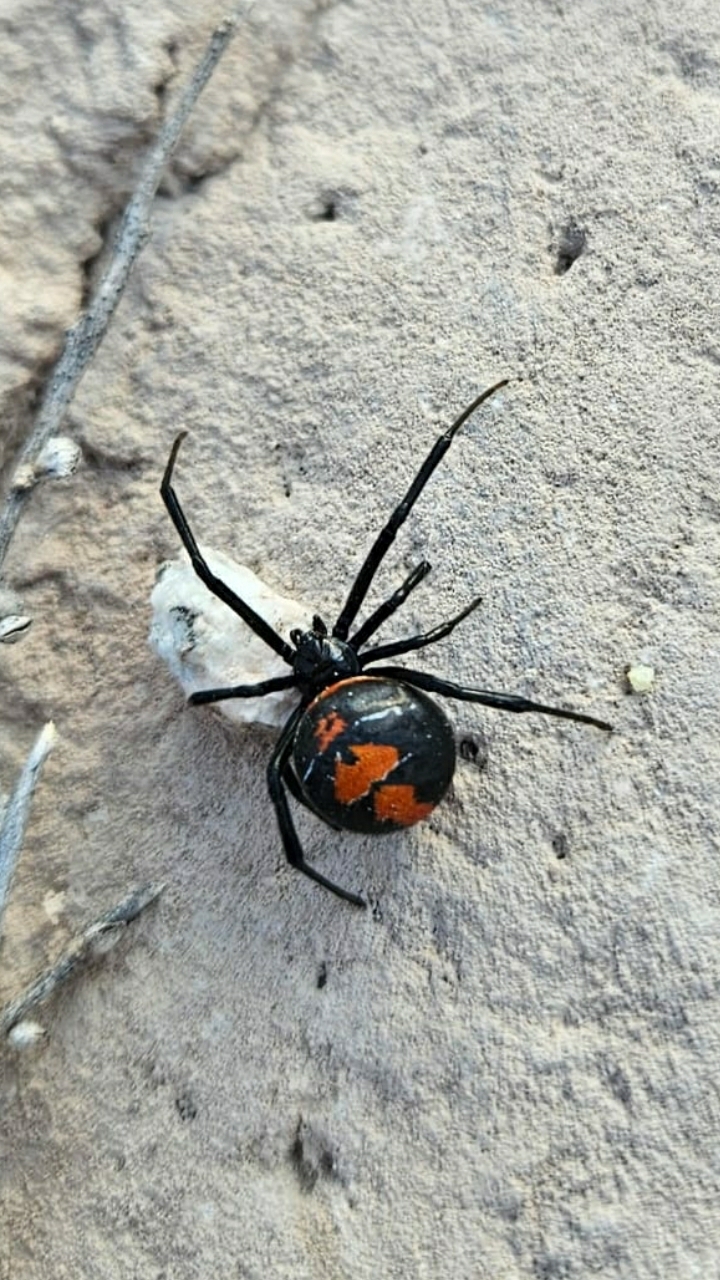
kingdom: Animalia
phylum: Arthropoda
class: Arachnida
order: Araneae
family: Theridiidae
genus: Latrodectus
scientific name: Latrodectus mirabilis
